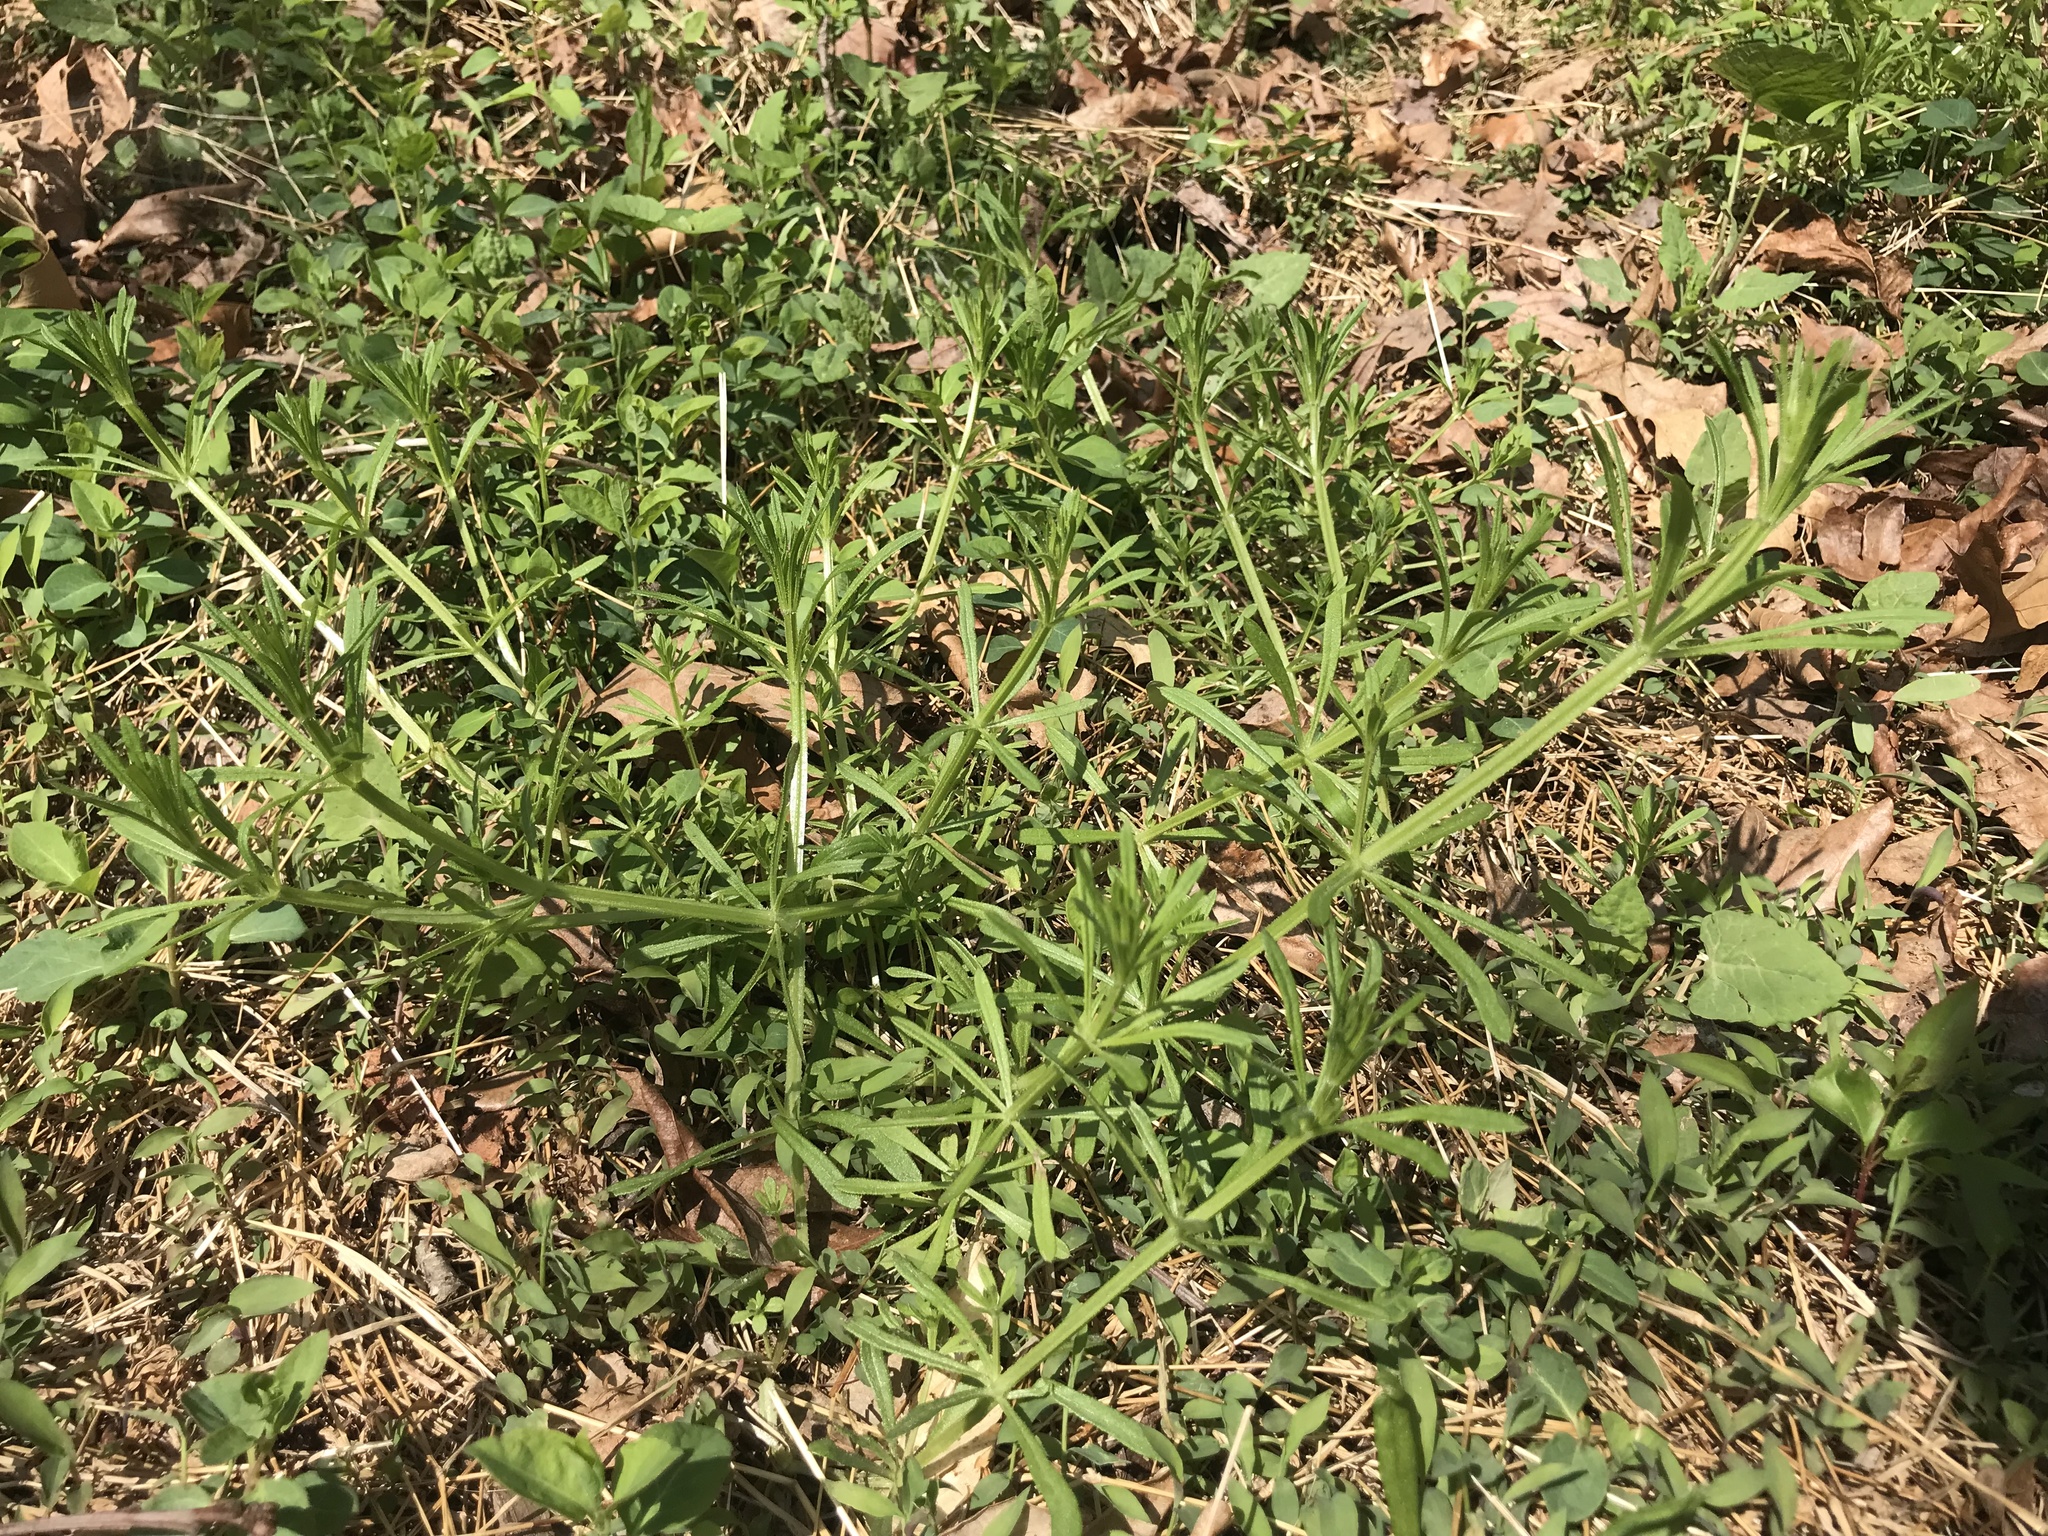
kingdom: Plantae
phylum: Tracheophyta
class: Magnoliopsida
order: Gentianales
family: Rubiaceae
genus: Galium
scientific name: Galium aparine
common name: Cleavers
